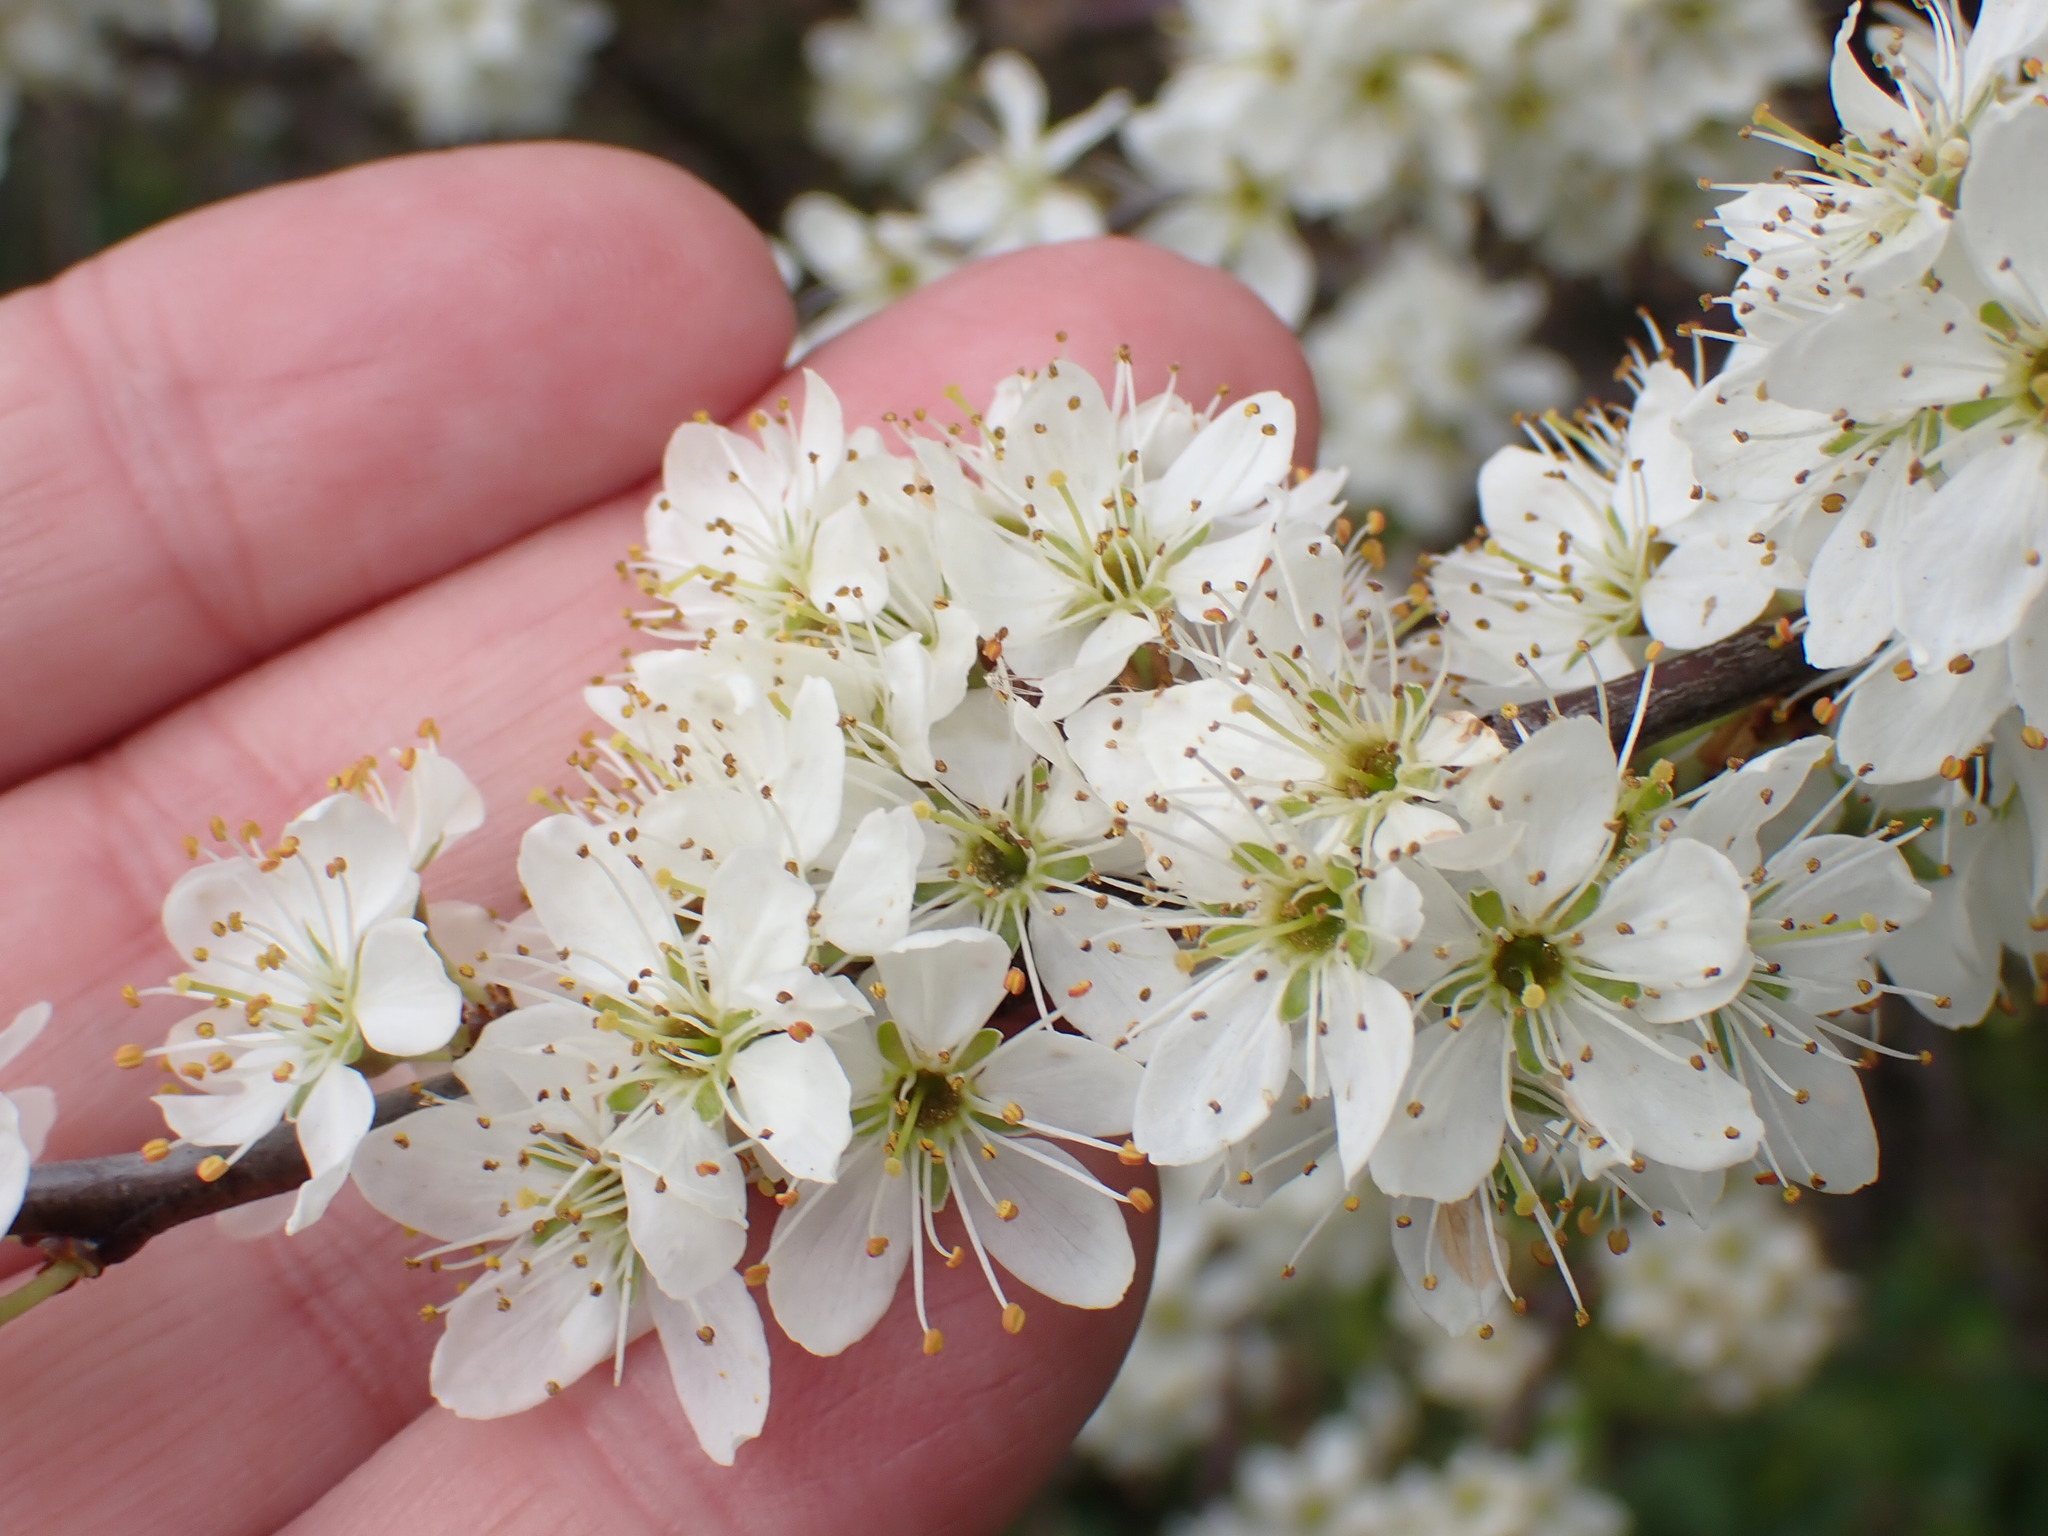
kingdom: Plantae
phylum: Tracheophyta
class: Magnoliopsida
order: Rosales
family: Rosaceae
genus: Prunus
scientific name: Prunus spinosa
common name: Blackthorn
